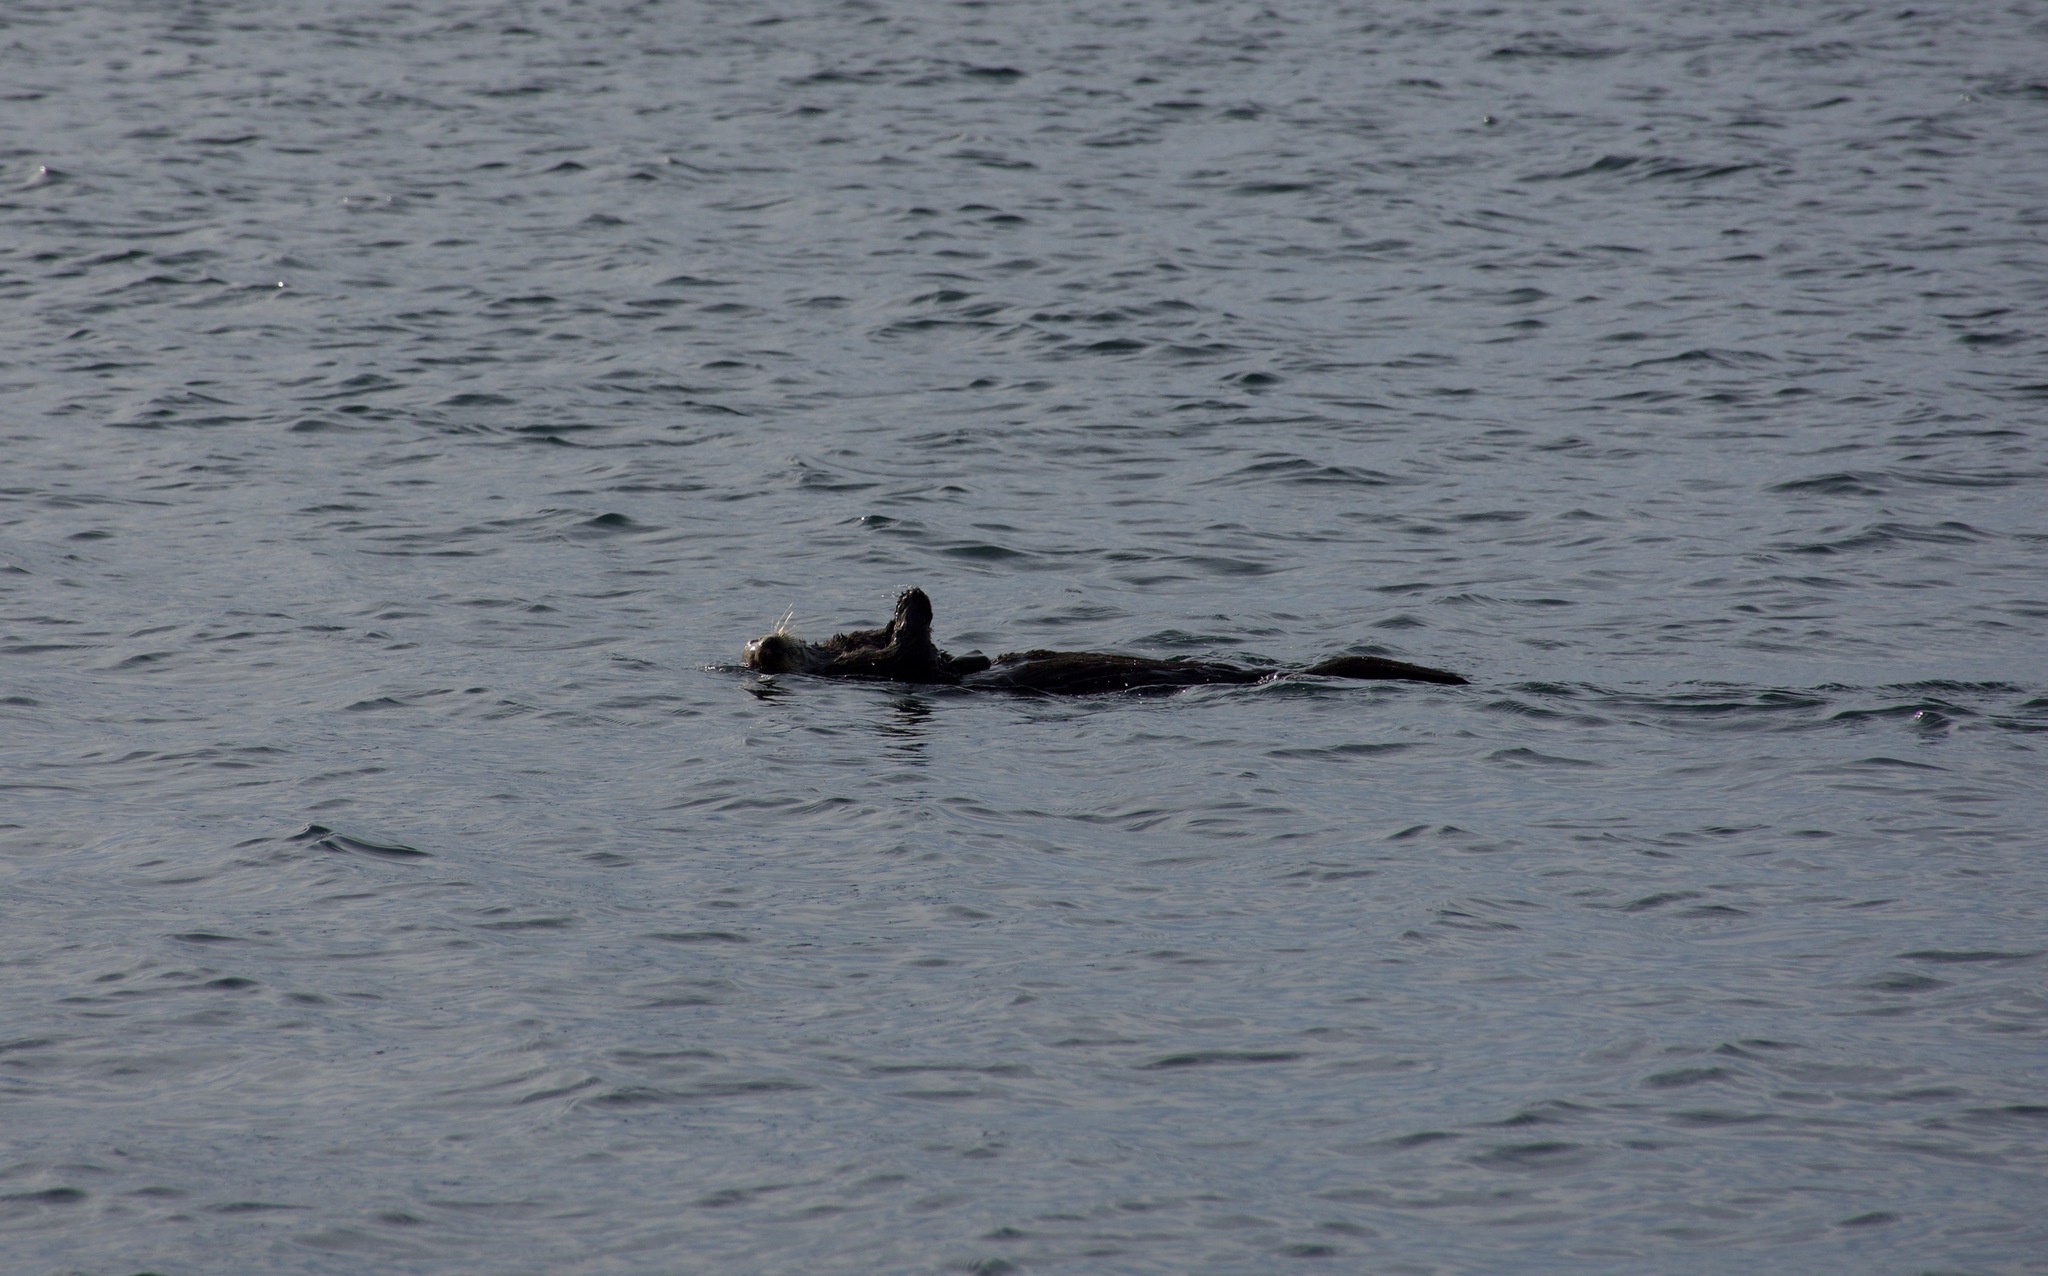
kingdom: Animalia
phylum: Chordata
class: Mammalia
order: Carnivora
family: Mustelidae
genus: Enhydra
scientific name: Enhydra lutris
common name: Sea otter
